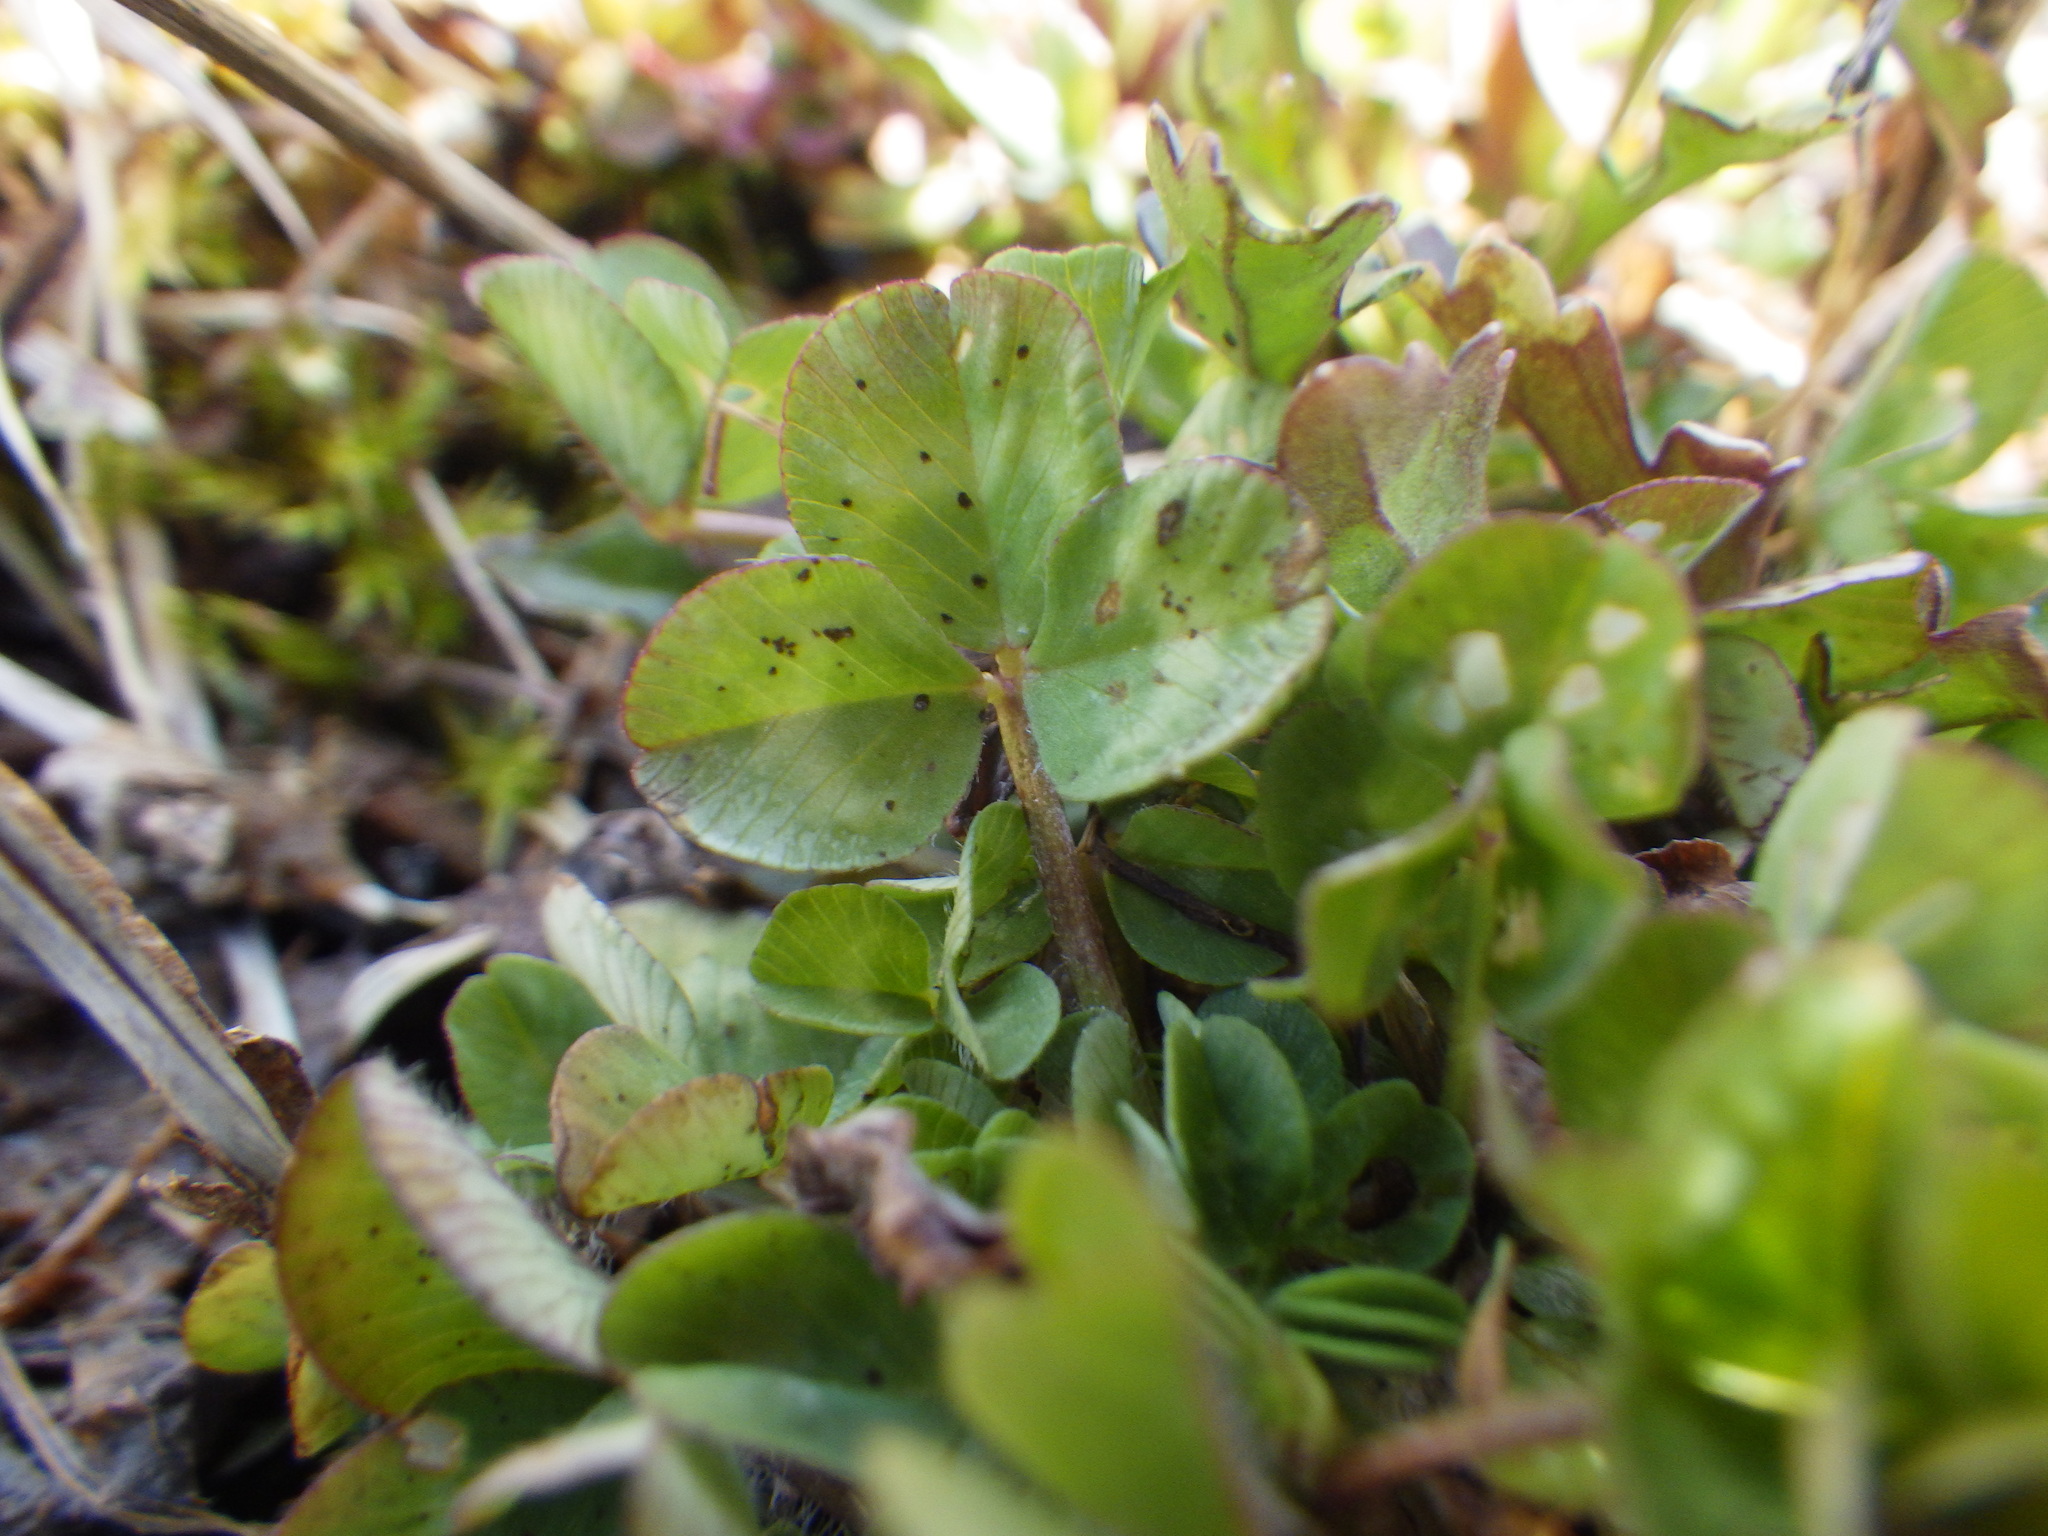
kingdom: Plantae
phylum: Tracheophyta
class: Magnoliopsida
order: Fabales
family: Fabaceae
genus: Trifolium
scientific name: Trifolium repens
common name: White clover
